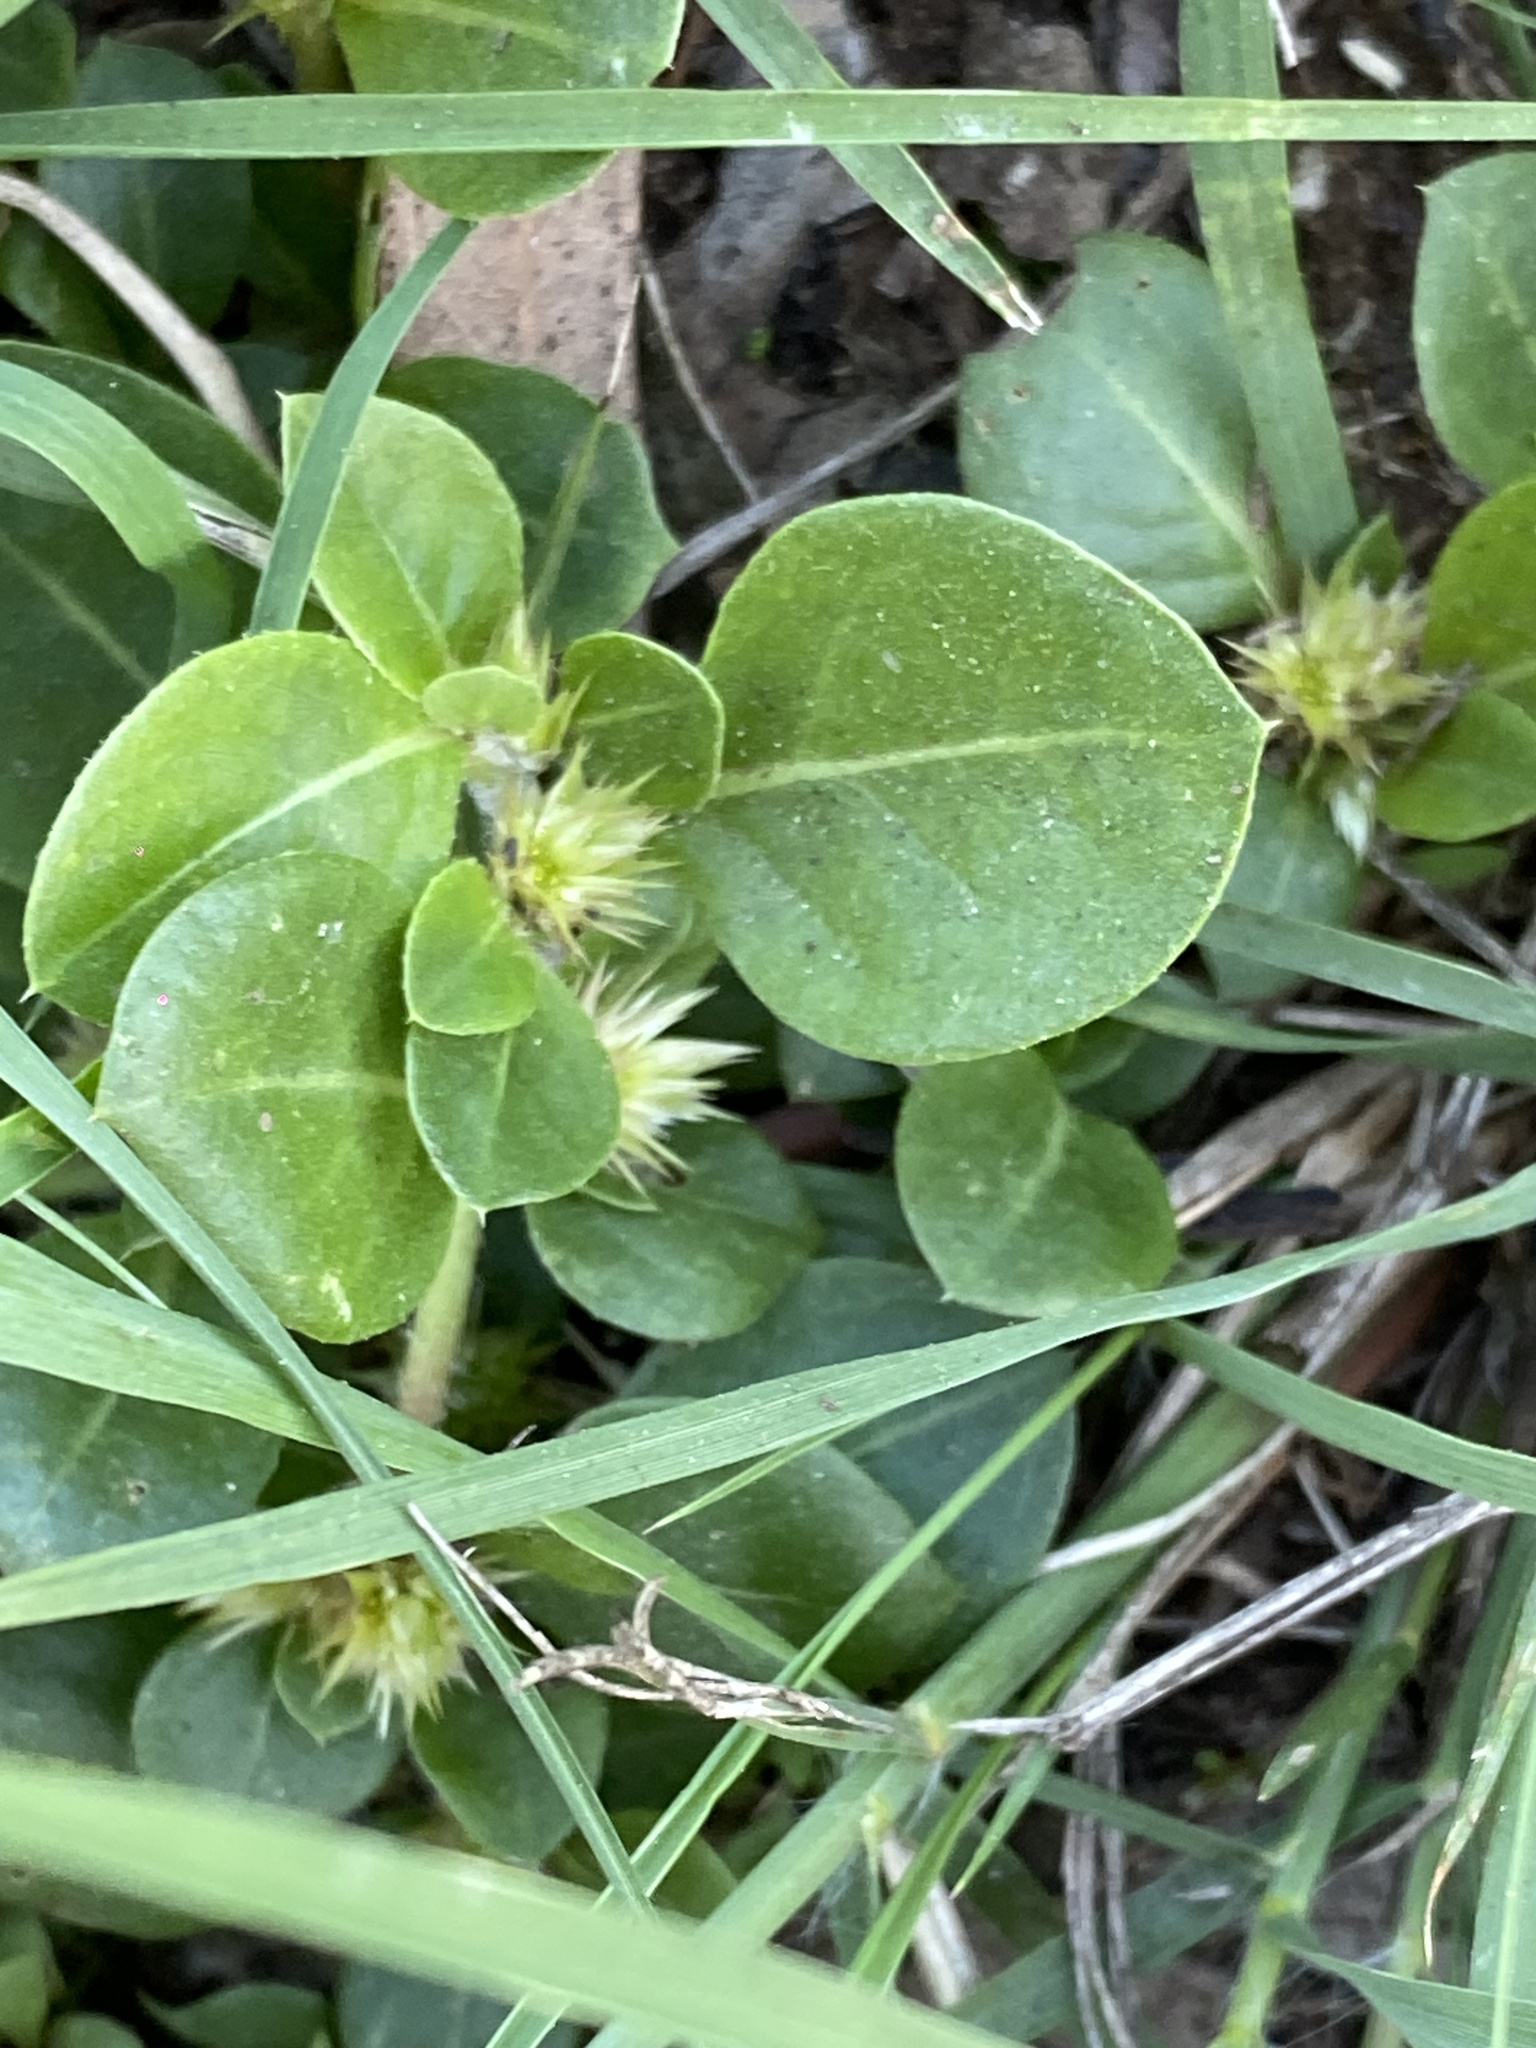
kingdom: Plantae
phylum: Tracheophyta
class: Magnoliopsida
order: Caryophyllales
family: Amaranthaceae
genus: Alternanthera
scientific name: Alternanthera pungens
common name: Khakiweed
